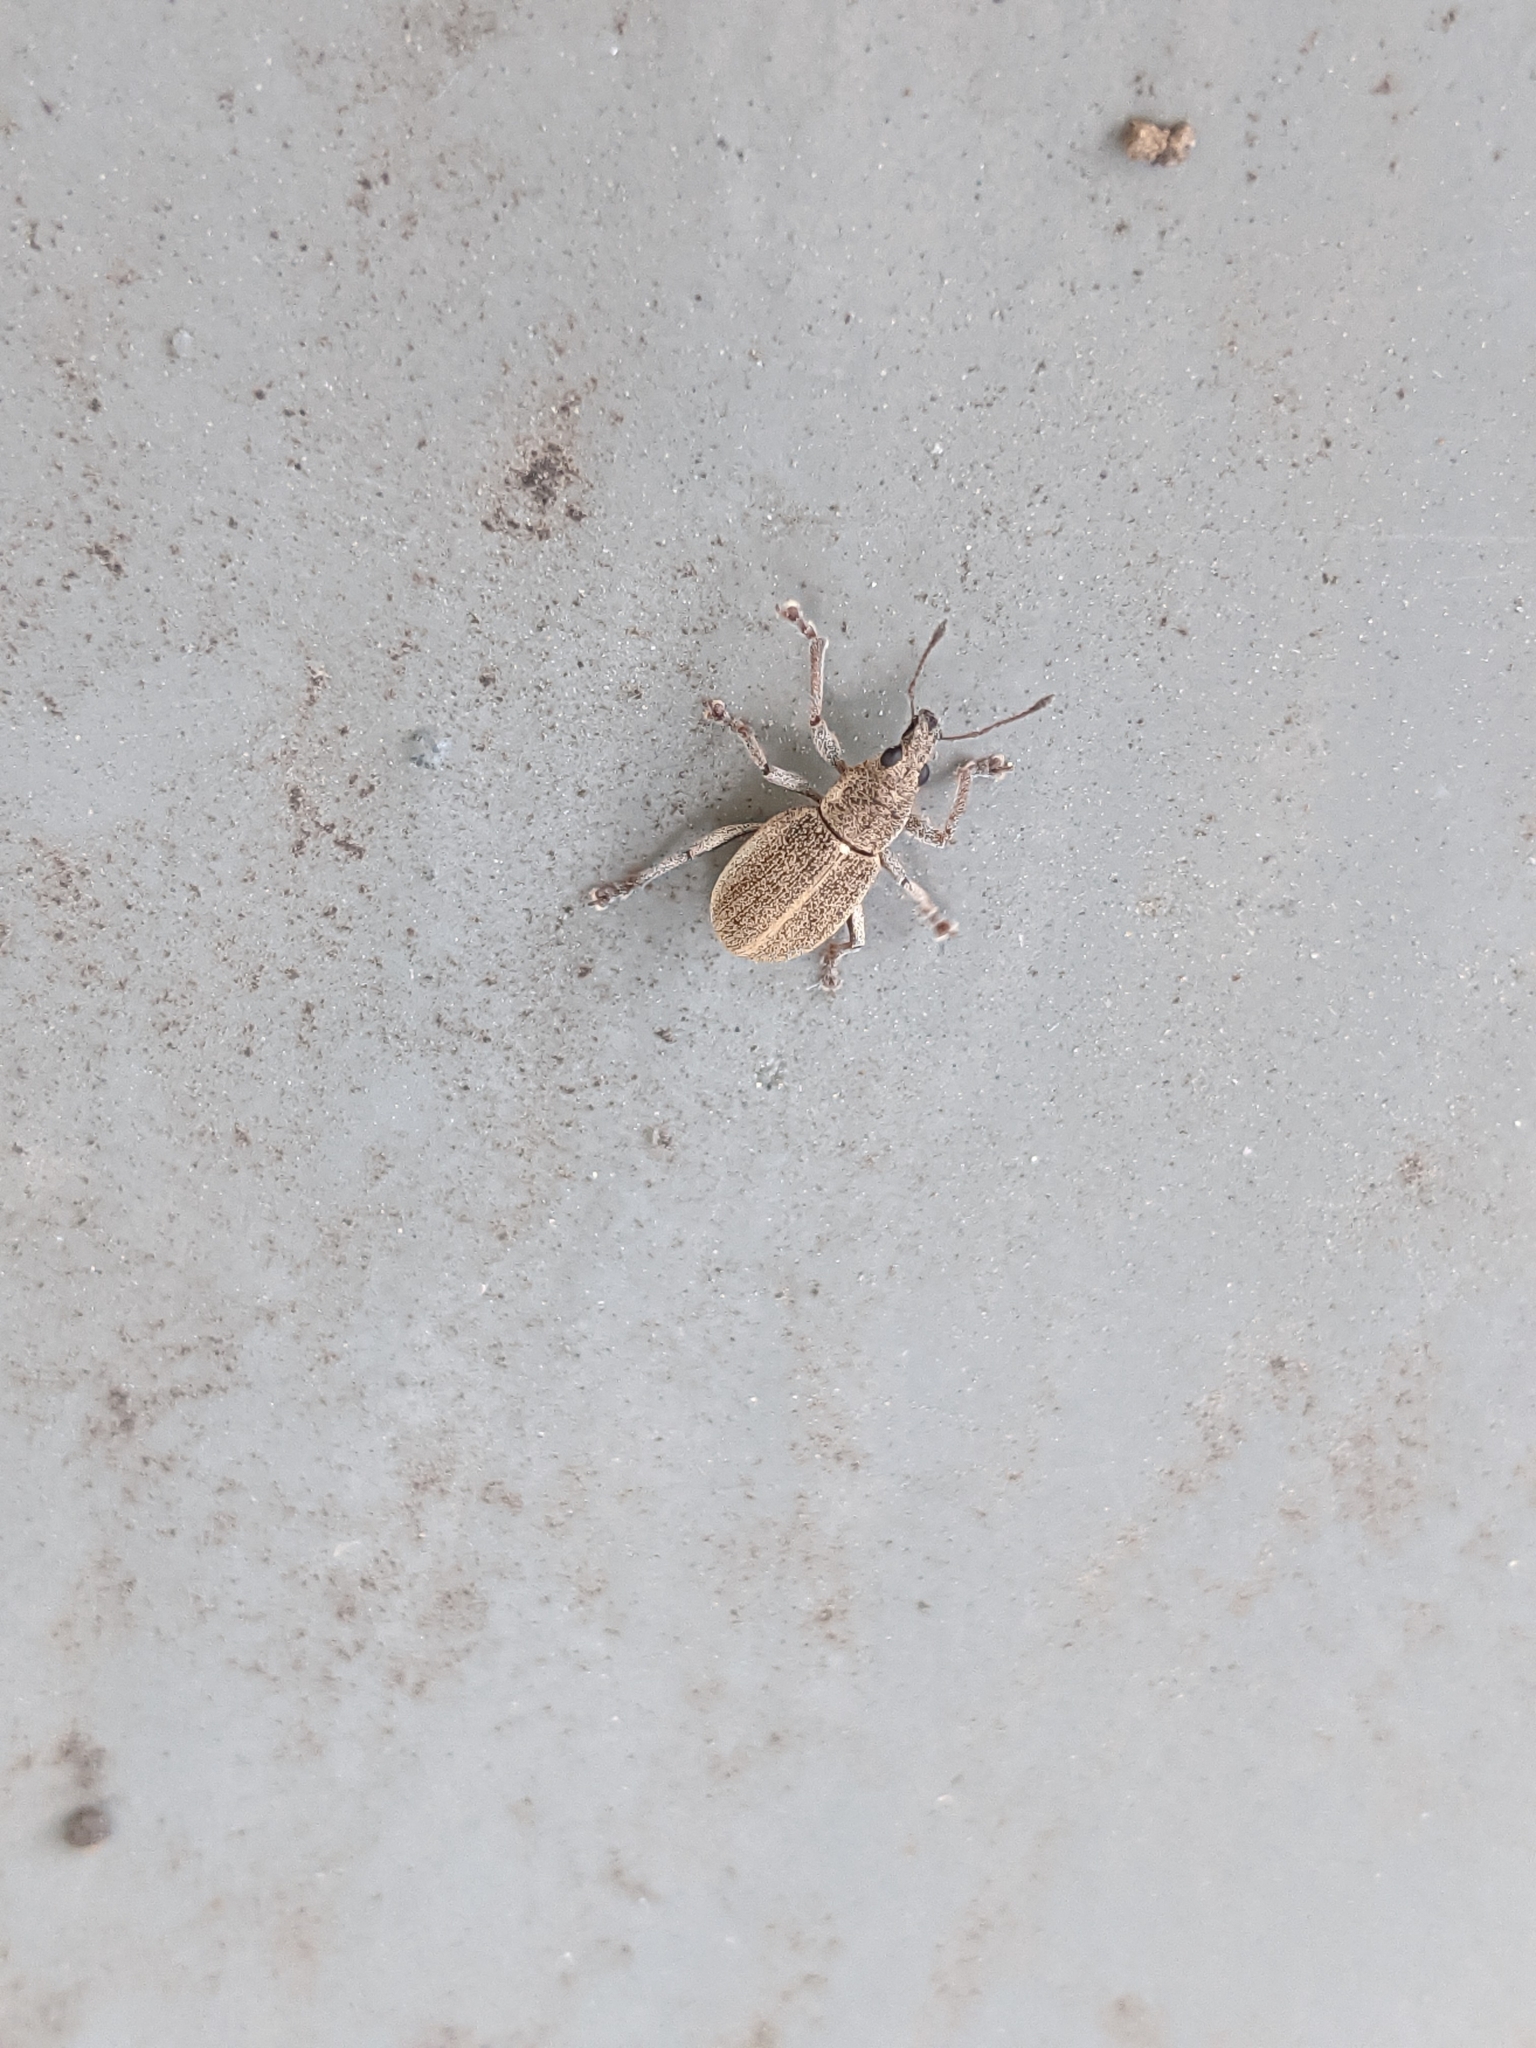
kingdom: Animalia
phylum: Arthropoda
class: Insecta
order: Coleoptera
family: Curculionidae
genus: Sciaphobus
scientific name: Sciaphobus squalidus
